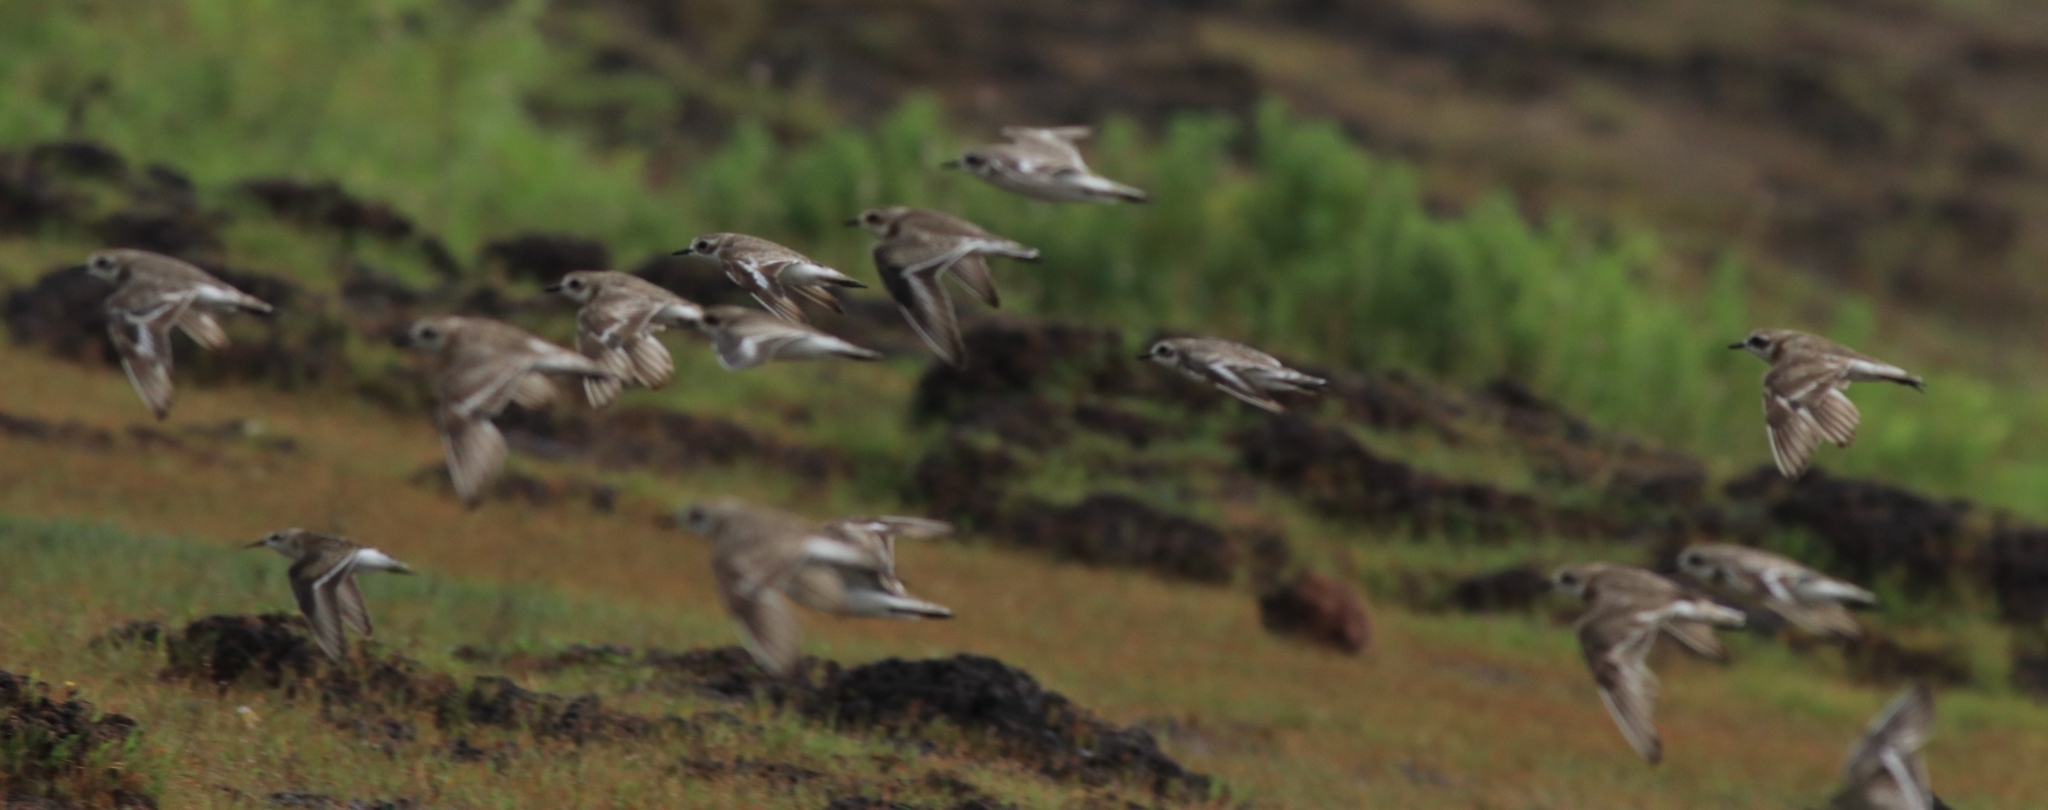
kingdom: Animalia
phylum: Chordata
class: Aves
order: Charadriiformes
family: Charadriidae
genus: Anarhynchus
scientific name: Anarhynchus
